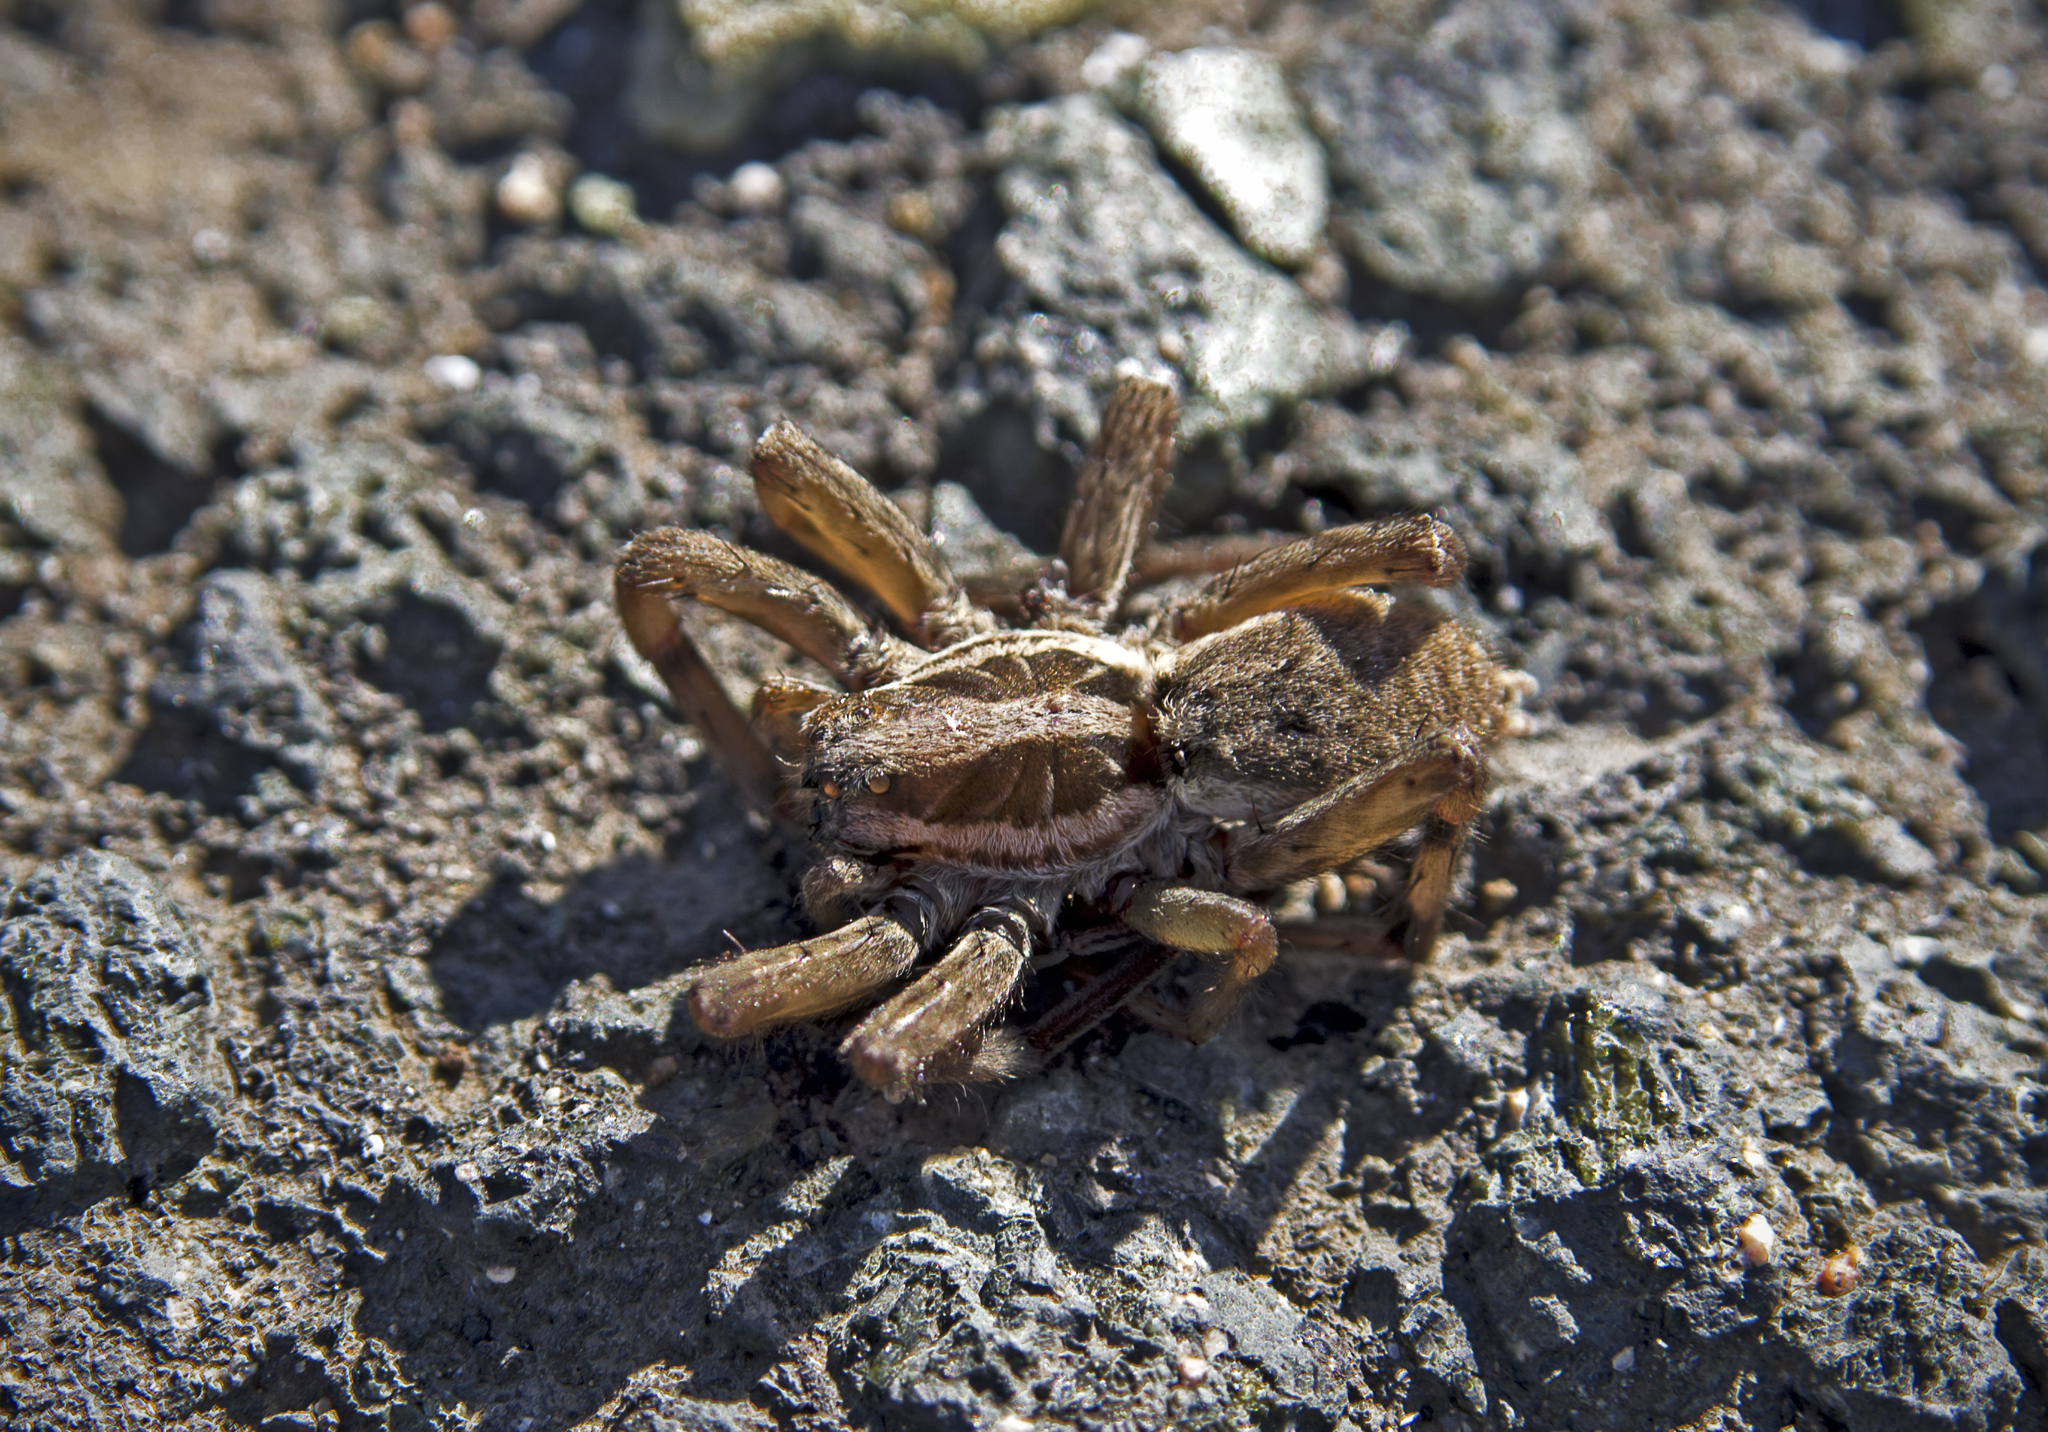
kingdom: Animalia
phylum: Arthropoda
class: Arachnida
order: Araneae
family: Lycosidae
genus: Hogna
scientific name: Hogna radiata
